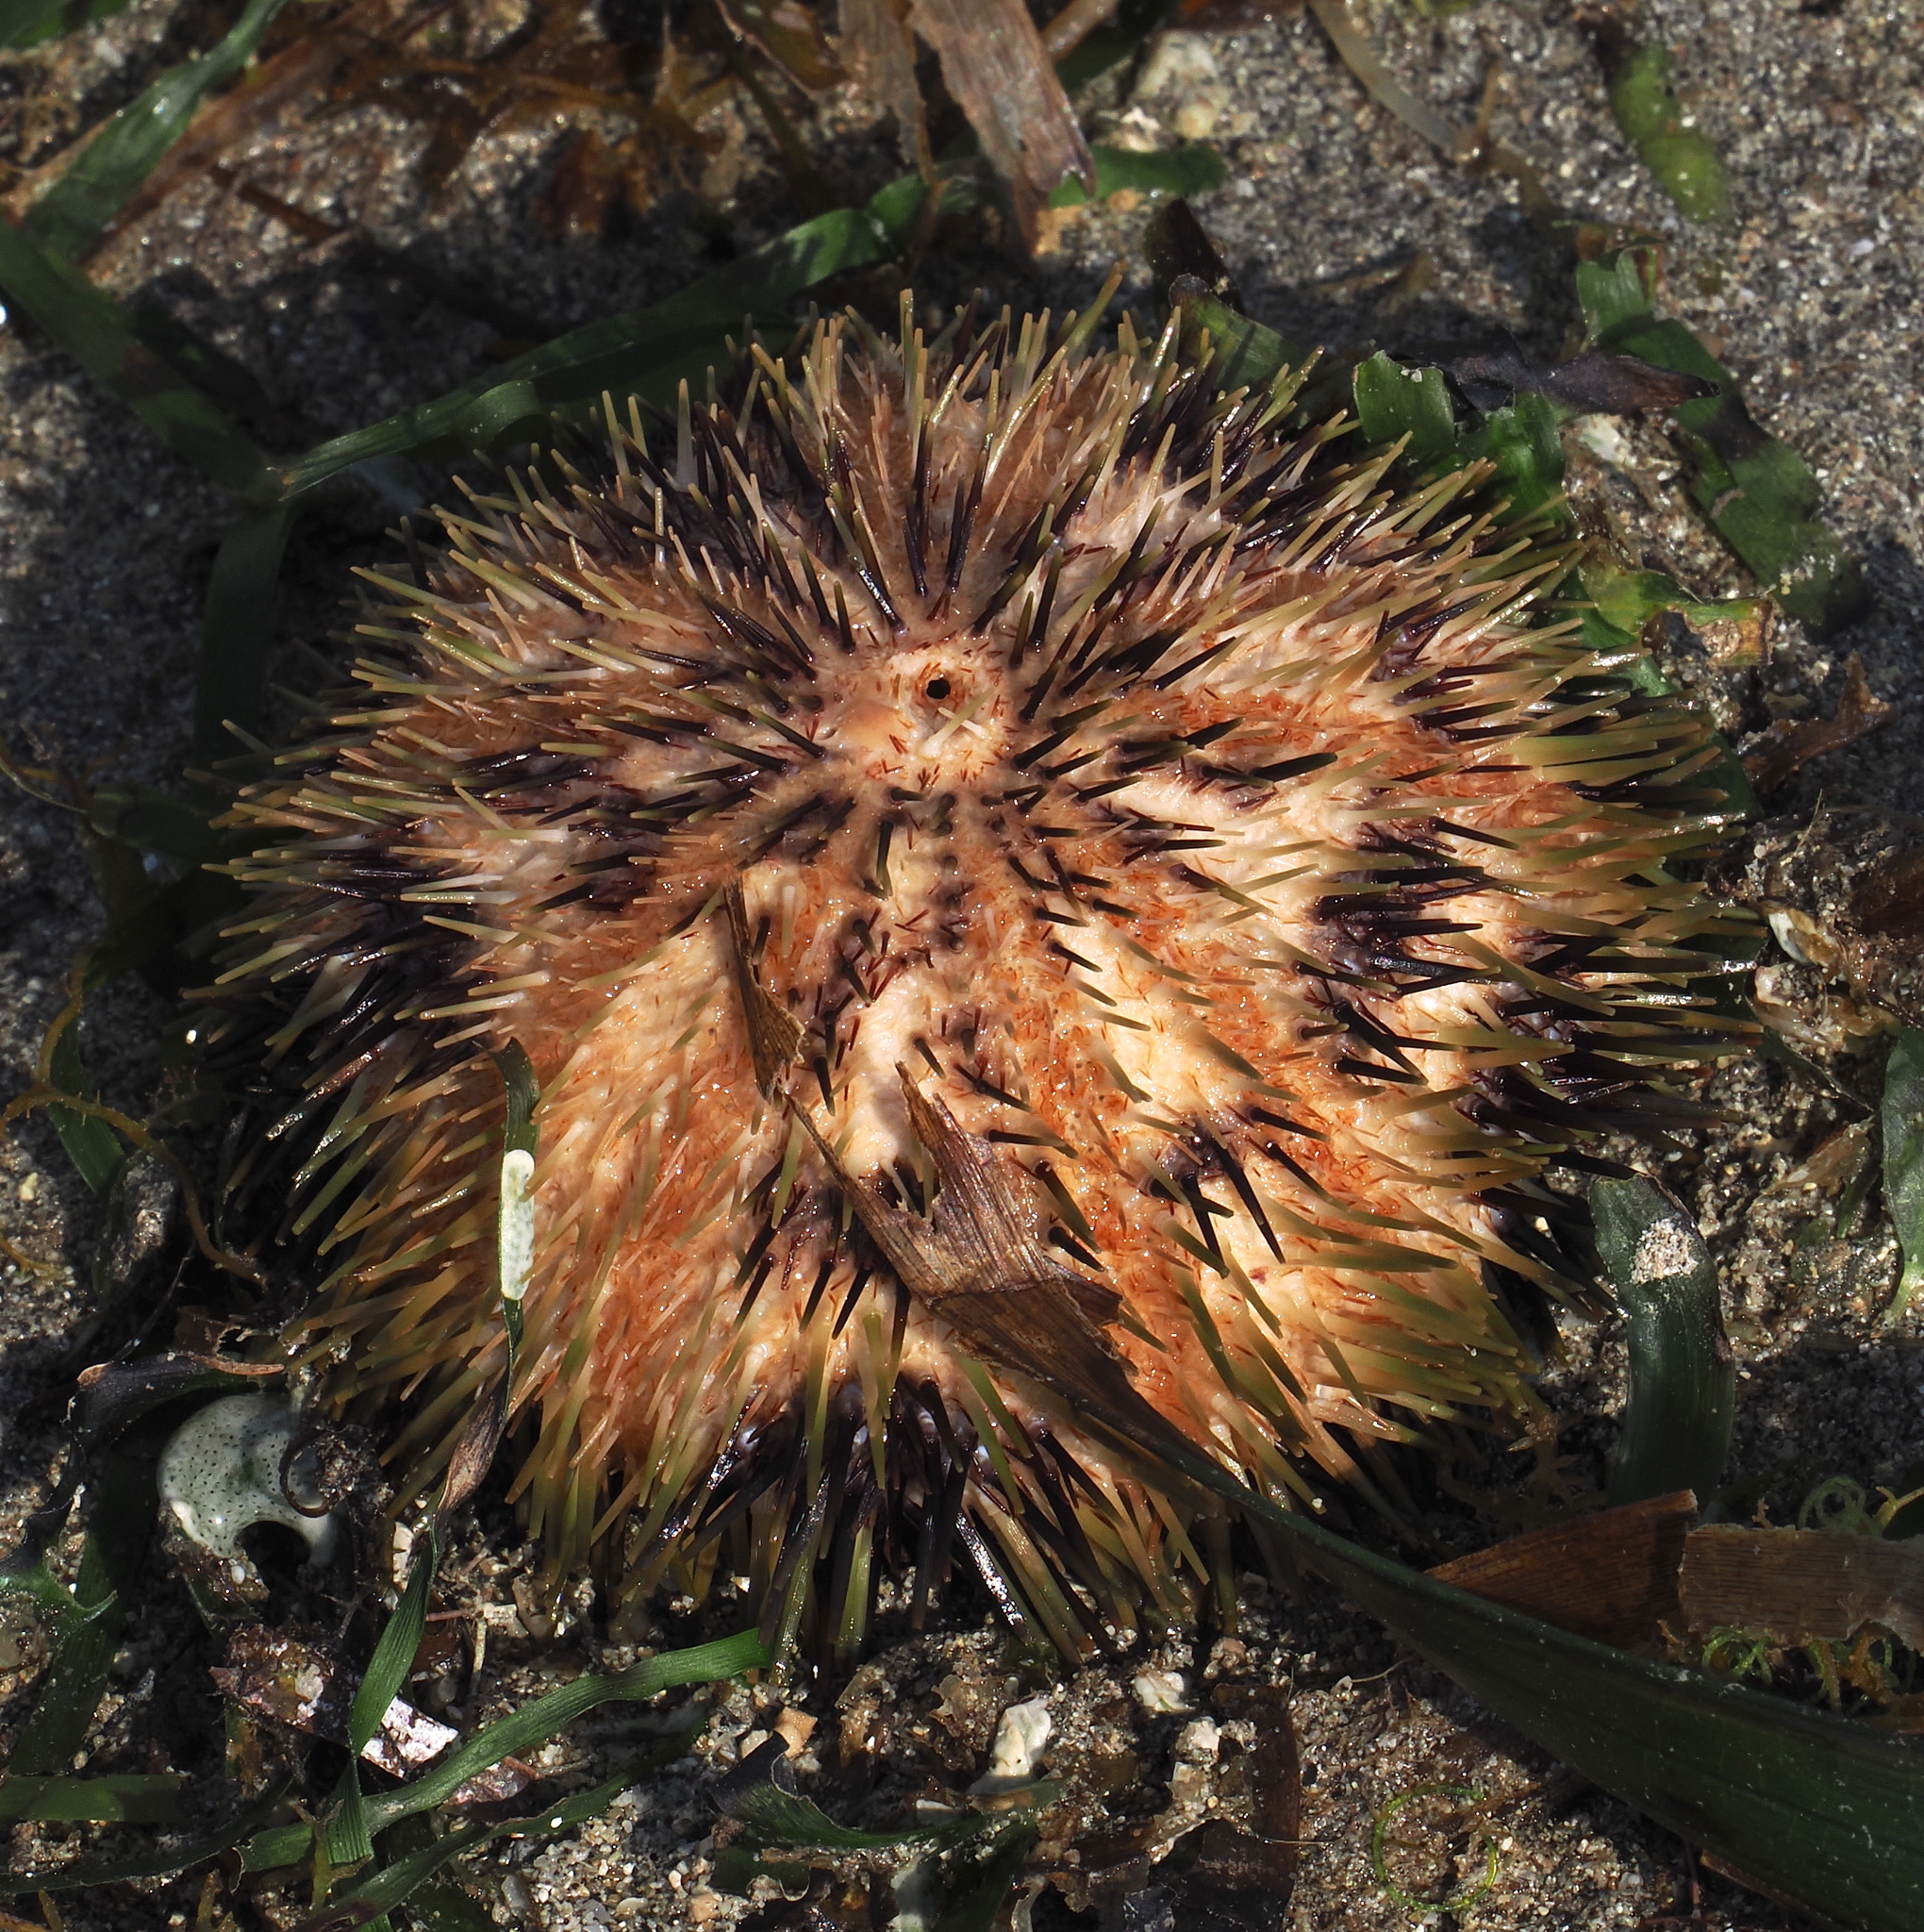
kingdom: Animalia
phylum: Echinodermata
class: Echinoidea
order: Camarodonta
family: Toxopneustidae
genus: Pseudoboletia
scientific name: Pseudoboletia maculata
